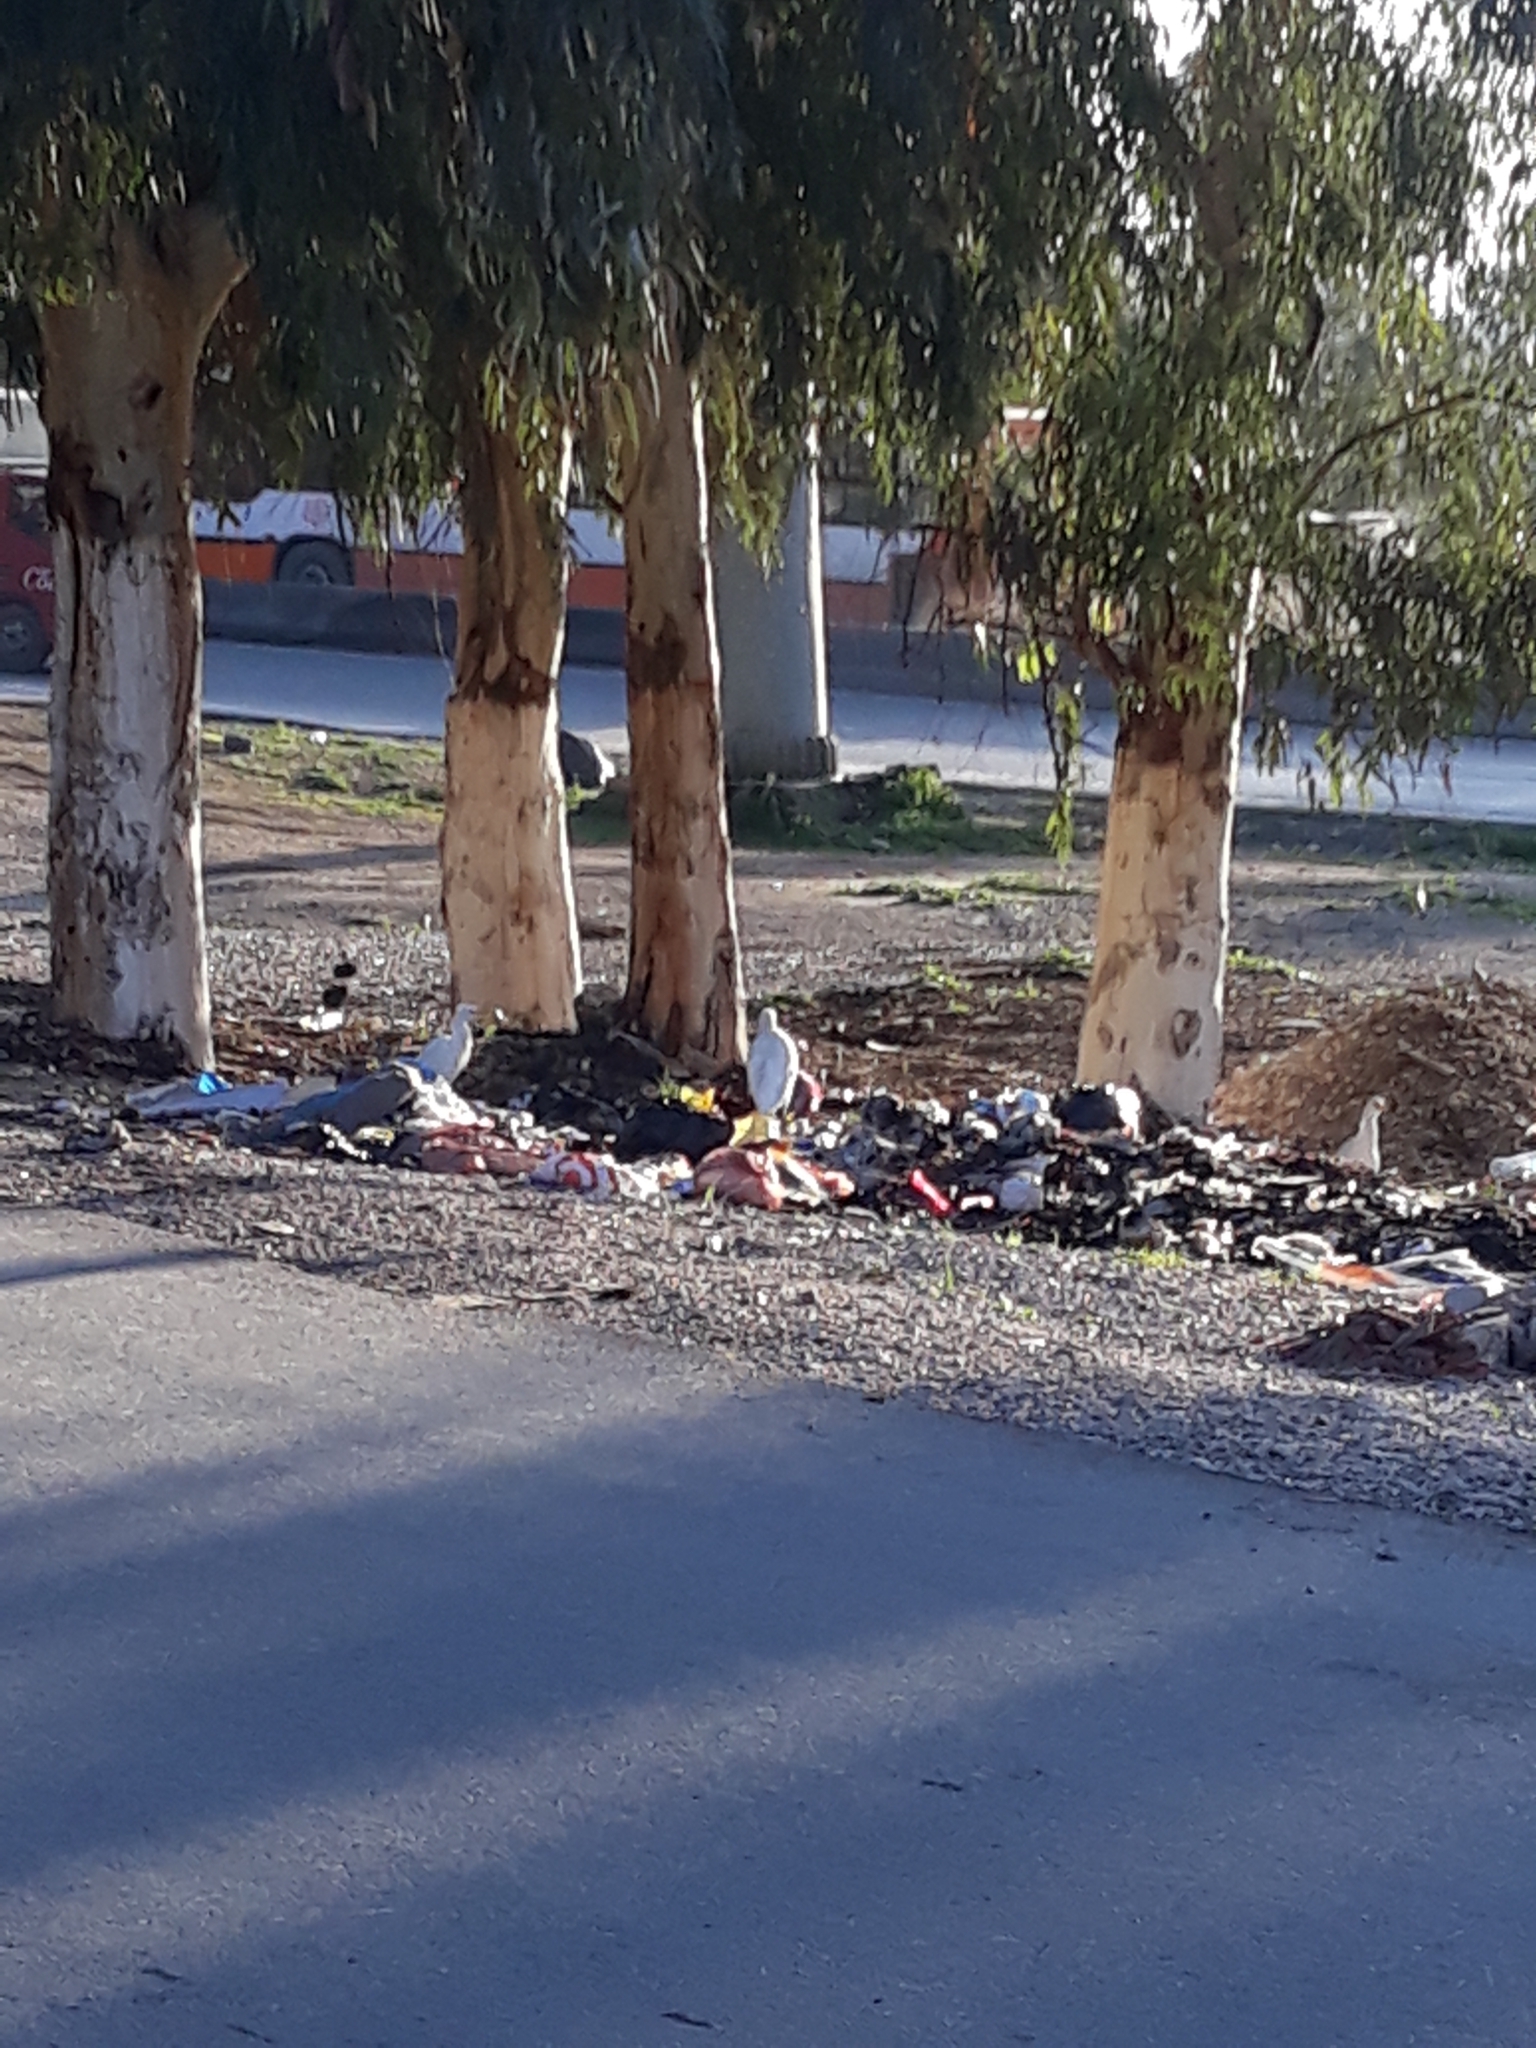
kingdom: Animalia
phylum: Chordata
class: Aves
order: Pelecaniformes
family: Ardeidae
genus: Bubulcus
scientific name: Bubulcus ibis
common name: Cattle egret
